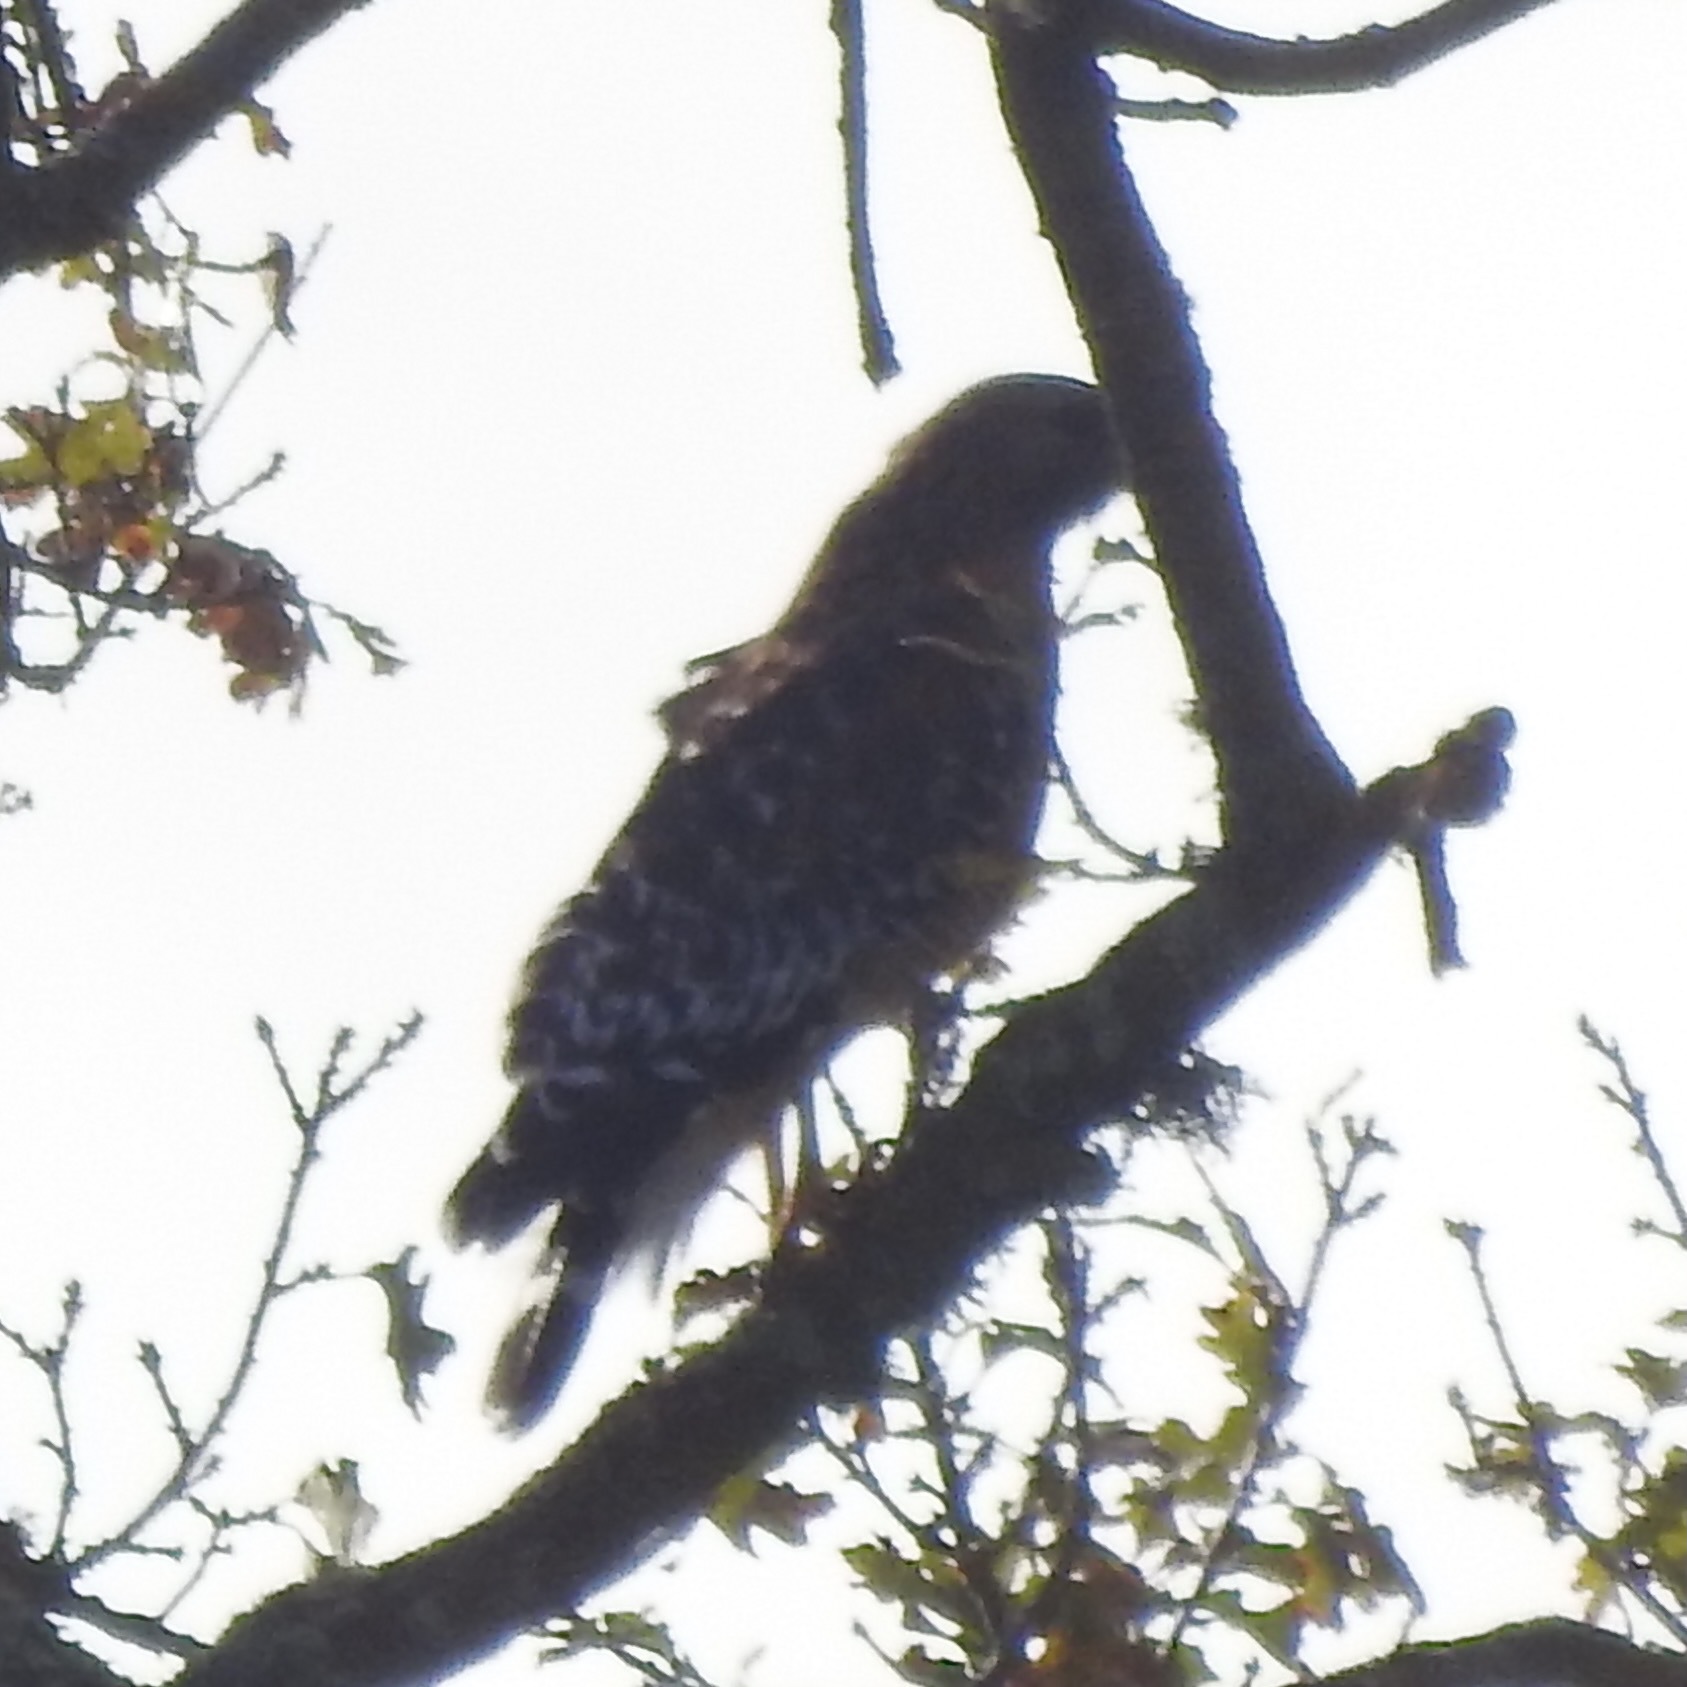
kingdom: Animalia
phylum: Chordata
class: Aves
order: Accipitriformes
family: Accipitridae
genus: Buteo
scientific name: Buteo lineatus
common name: Red-shouldered hawk
